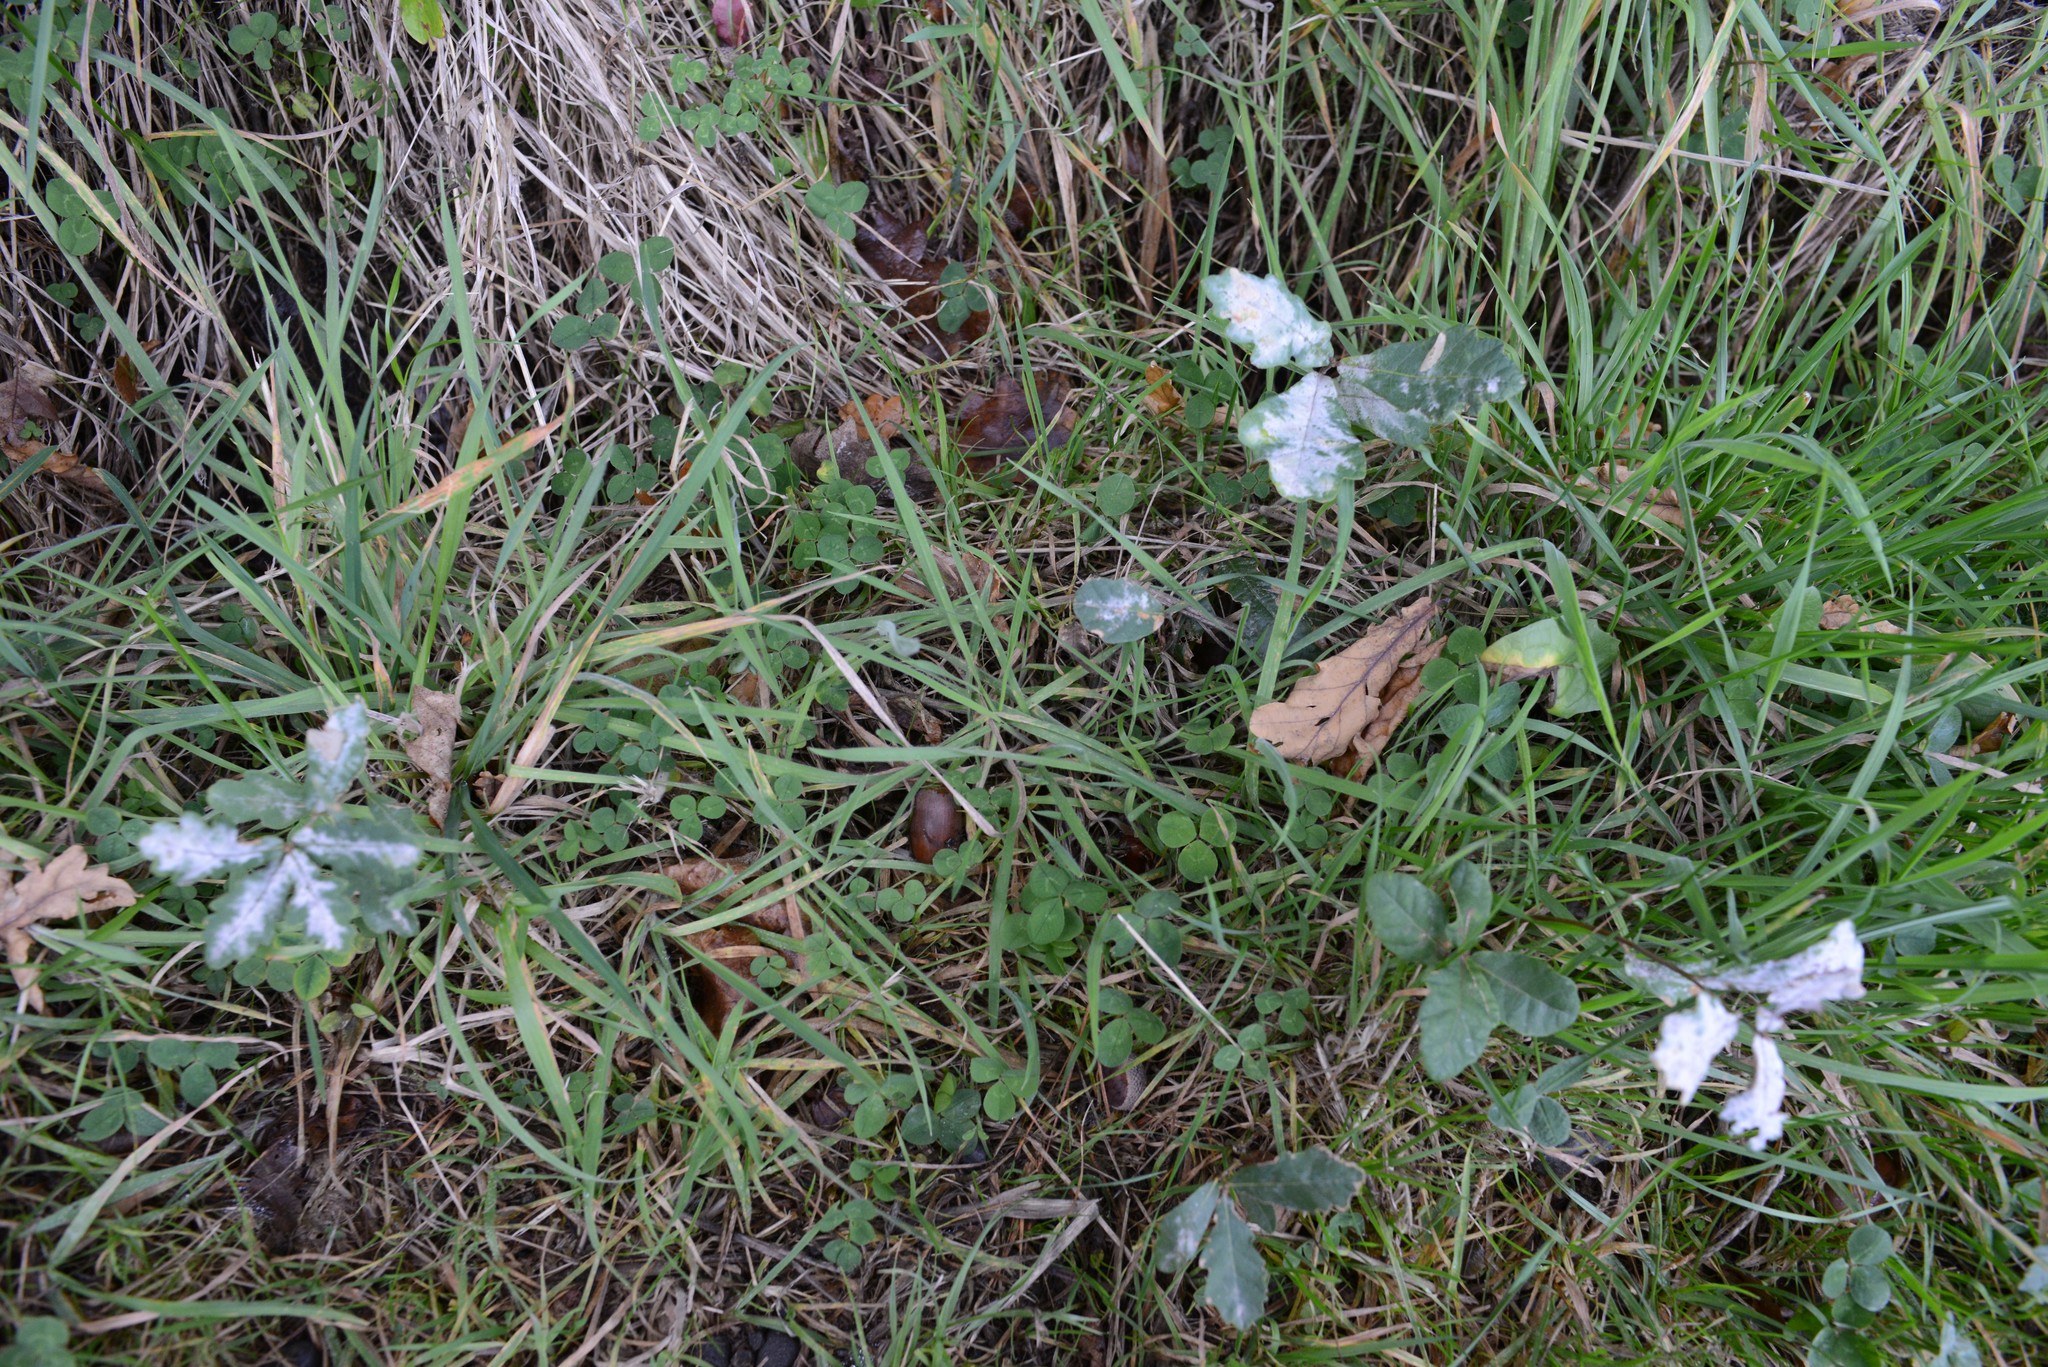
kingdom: Plantae
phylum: Tracheophyta
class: Magnoliopsida
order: Fagales
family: Fagaceae
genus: Quercus
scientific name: Quercus robur
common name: Pedunculate oak
